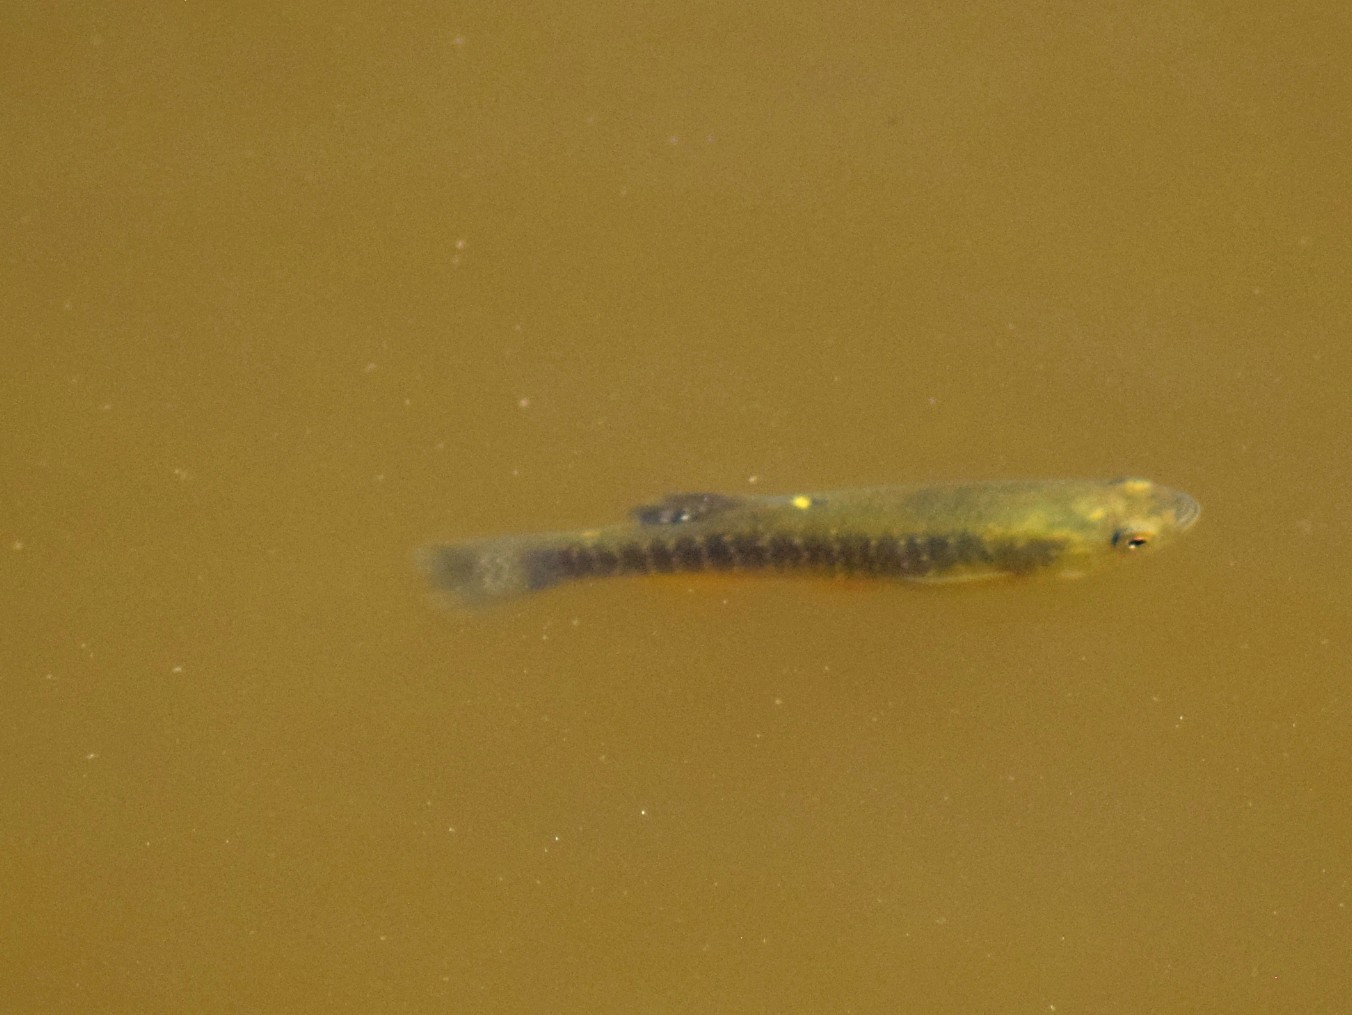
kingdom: Animalia
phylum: Chordata
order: Cyprinodontiformes
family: Fundulidae
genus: Fundulus
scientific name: Fundulus heteroclitus
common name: Mummichog
